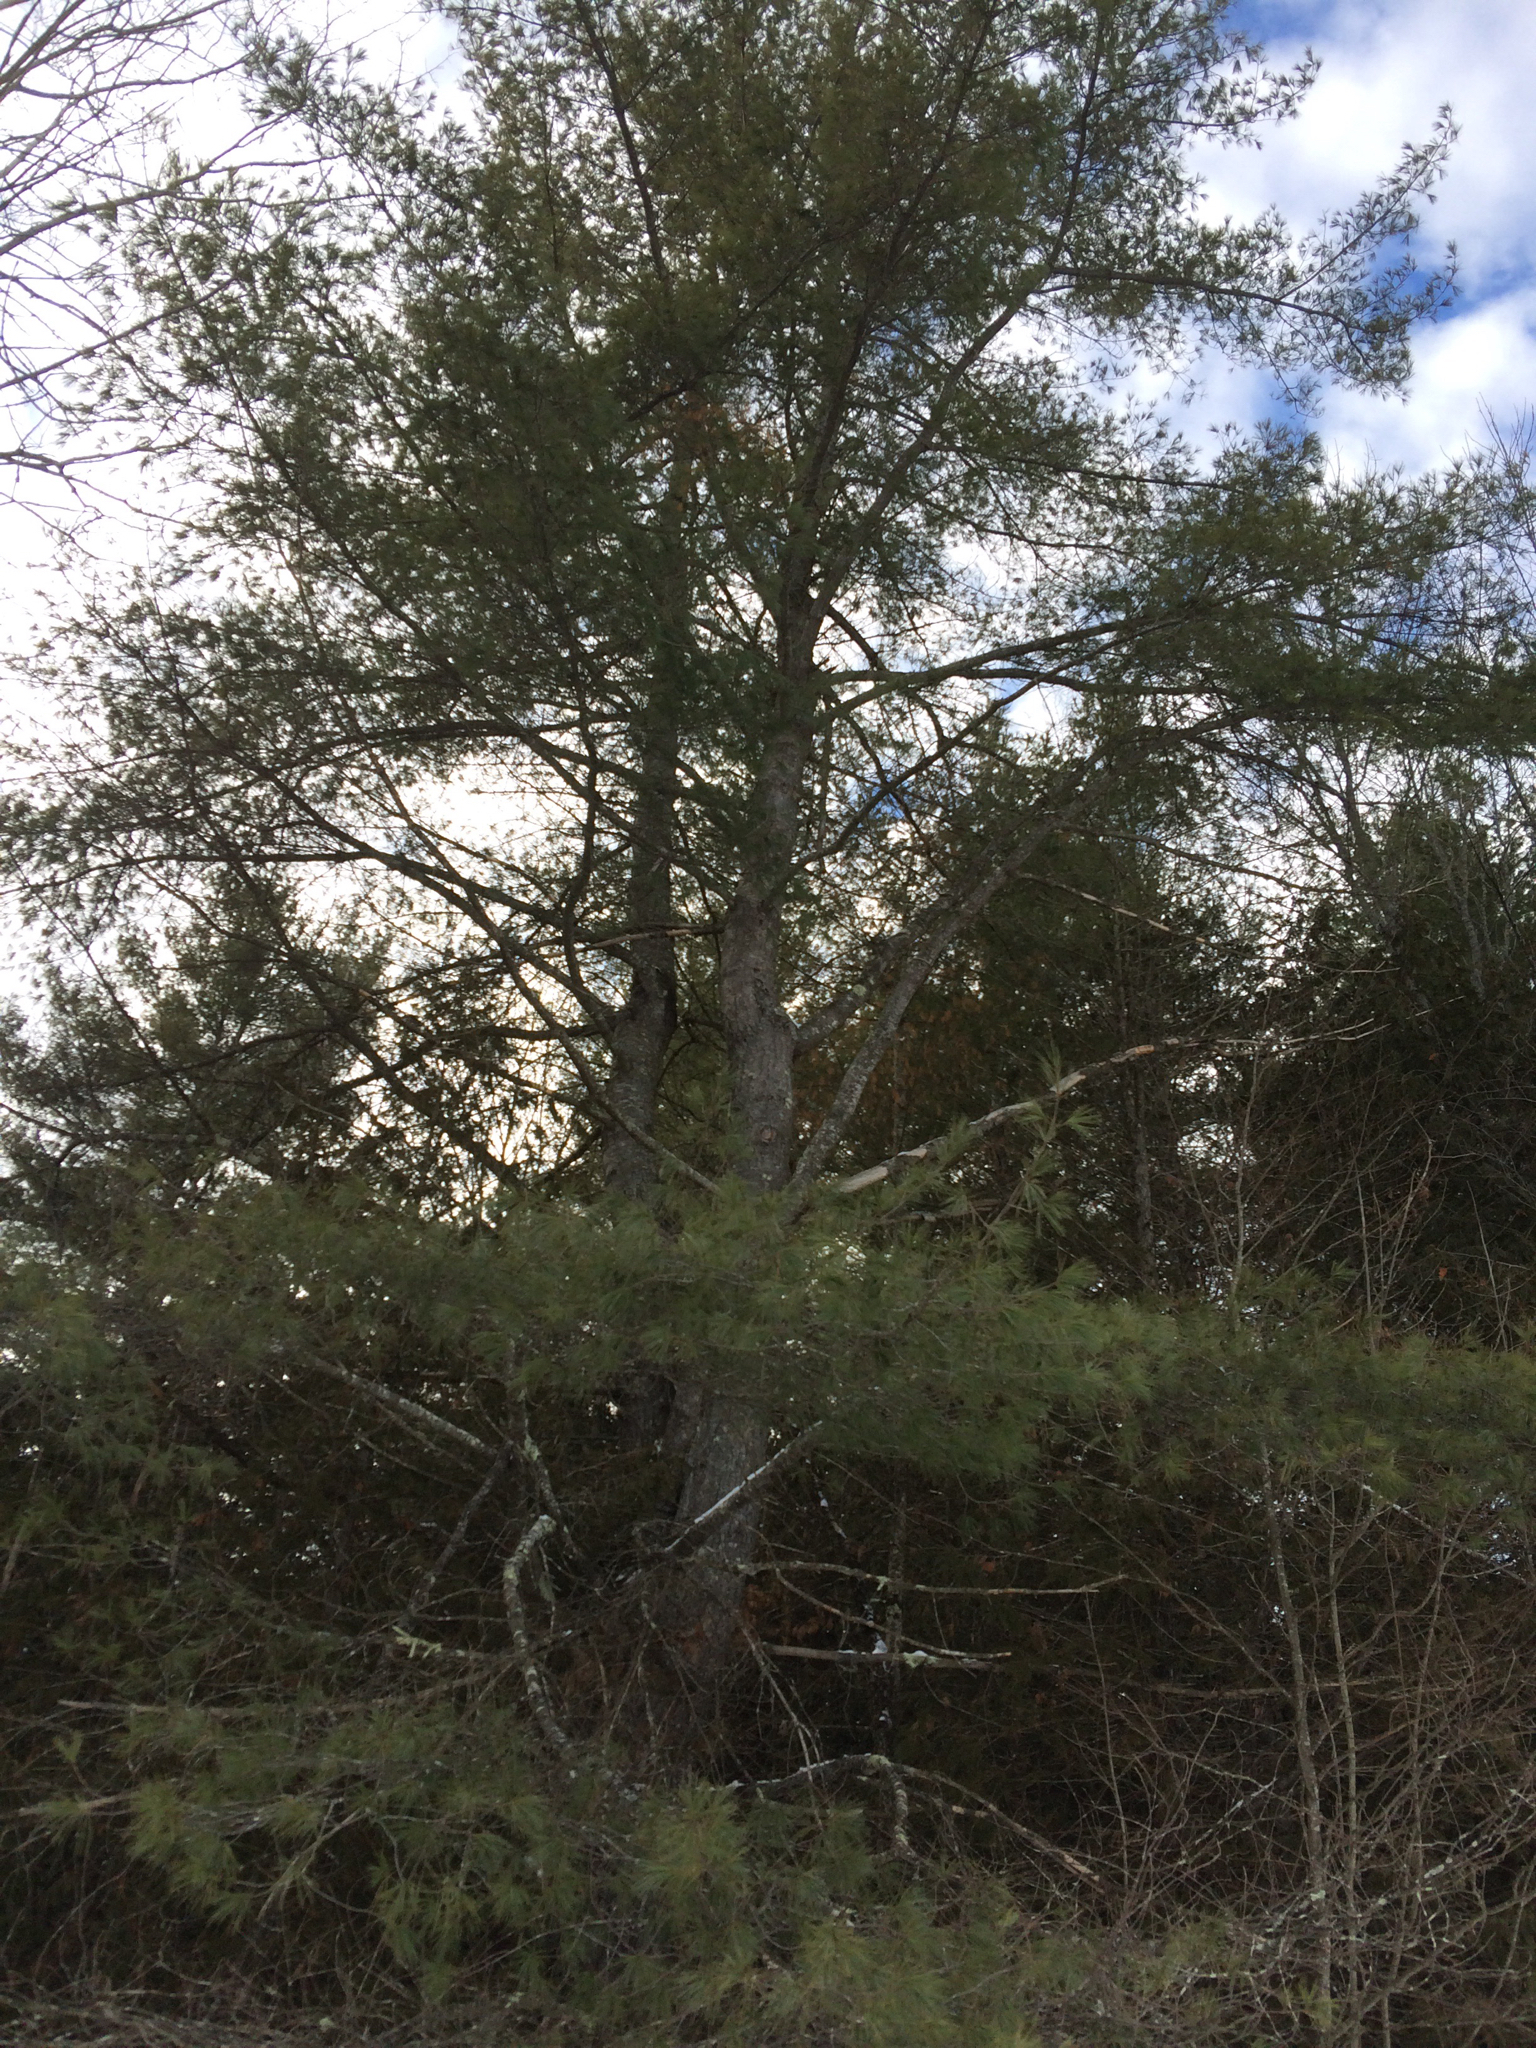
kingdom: Plantae
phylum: Tracheophyta
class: Pinopsida
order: Pinales
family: Pinaceae
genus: Pinus
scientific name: Pinus strobus
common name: Weymouth pine
